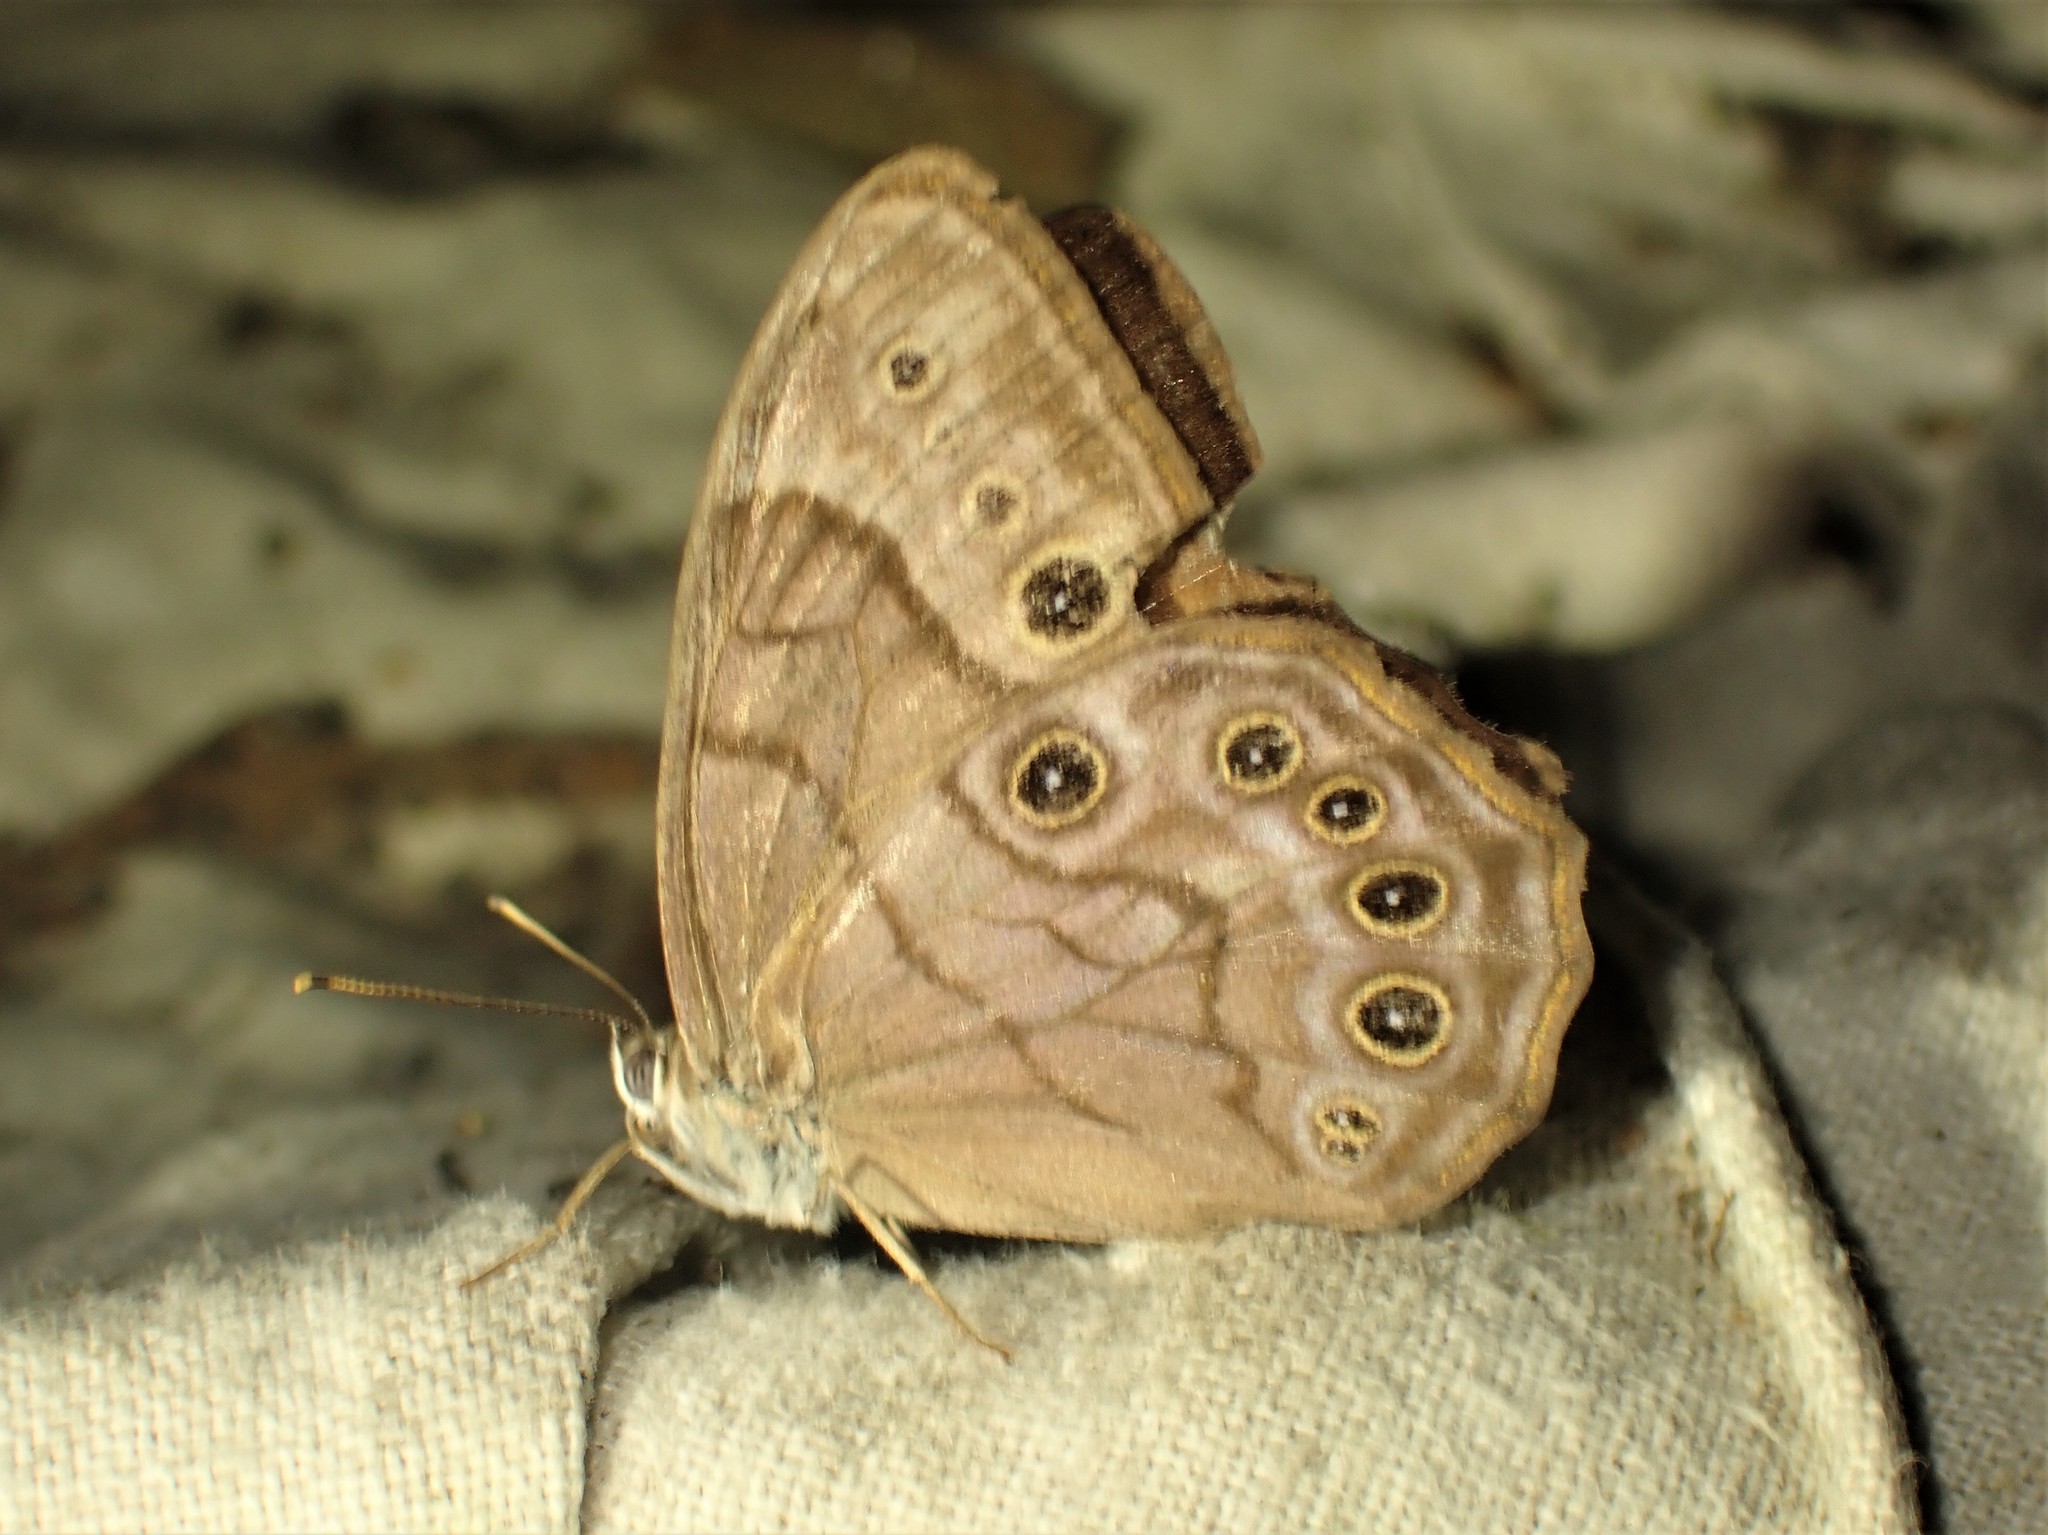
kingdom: Animalia
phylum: Arthropoda
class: Insecta
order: Lepidoptera
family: Nymphalidae
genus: Lethe
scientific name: Lethe anthedon
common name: Northern pearly-eye
